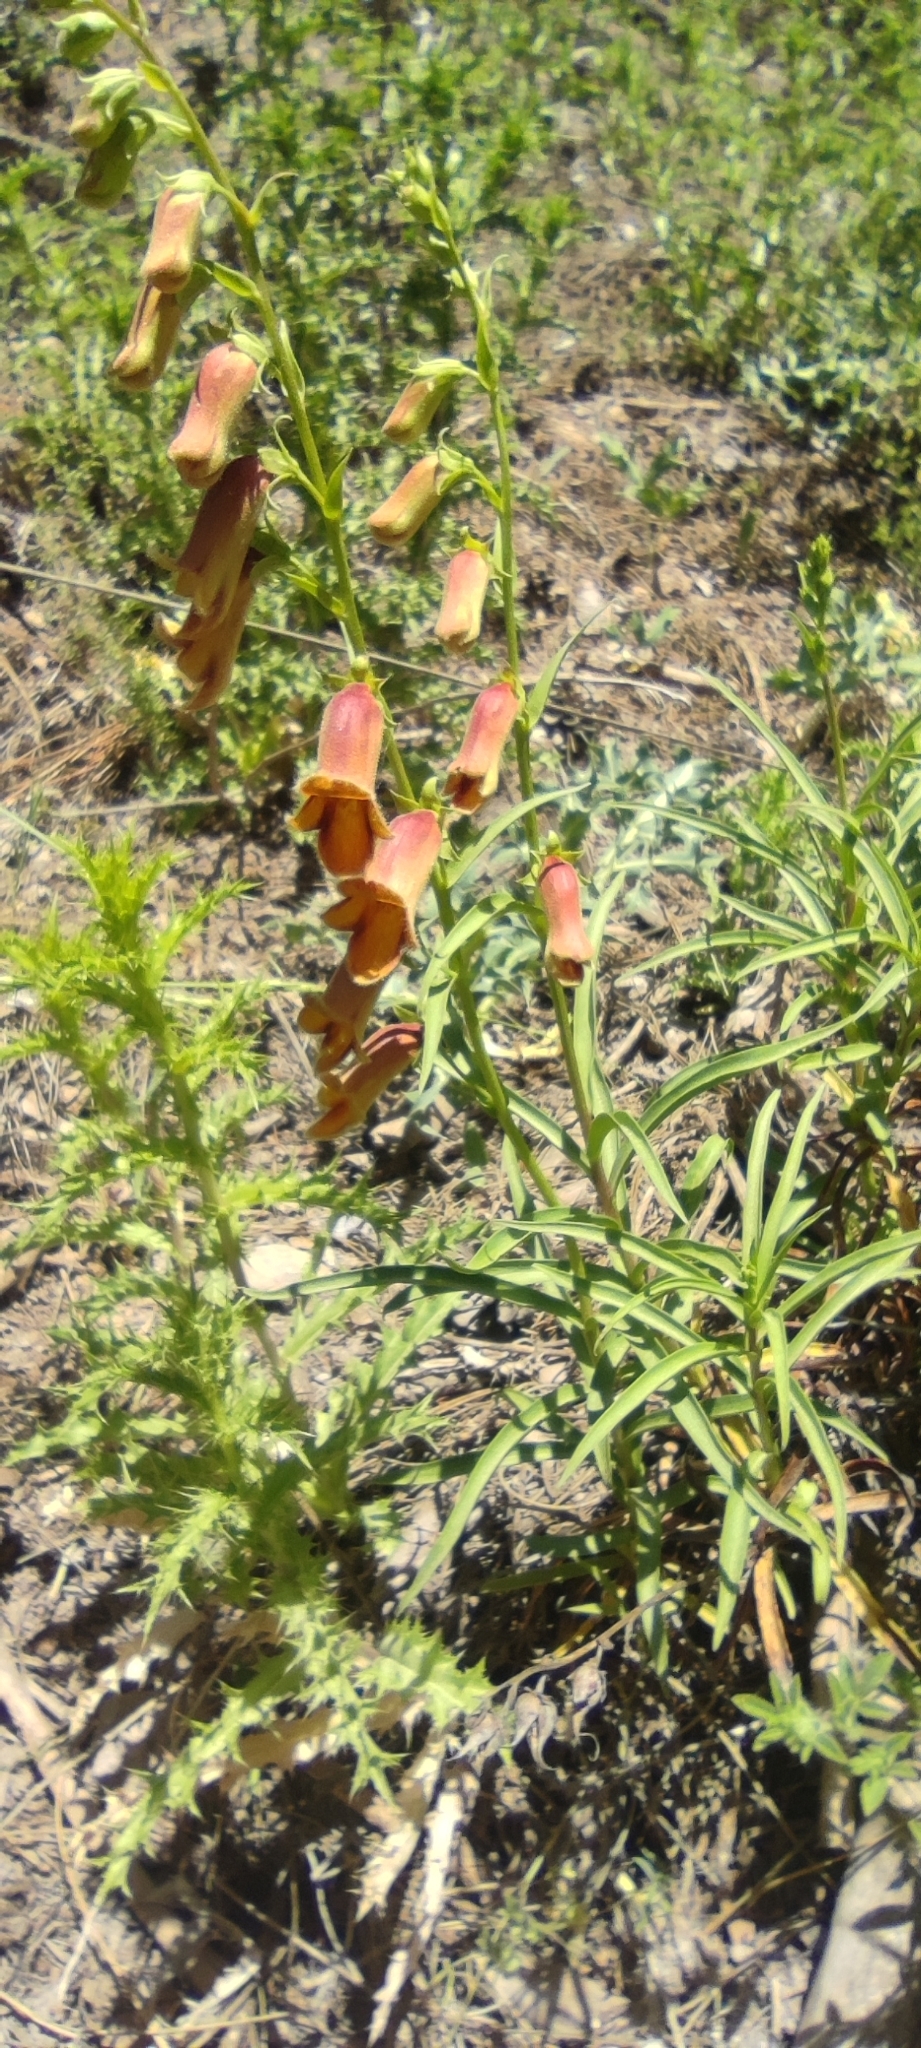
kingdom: Plantae
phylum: Tracheophyta
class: Magnoliopsida
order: Lamiales
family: Plantaginaceae
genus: Digitalis
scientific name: Digitalis obscura
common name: Willow-leaf foxglove
